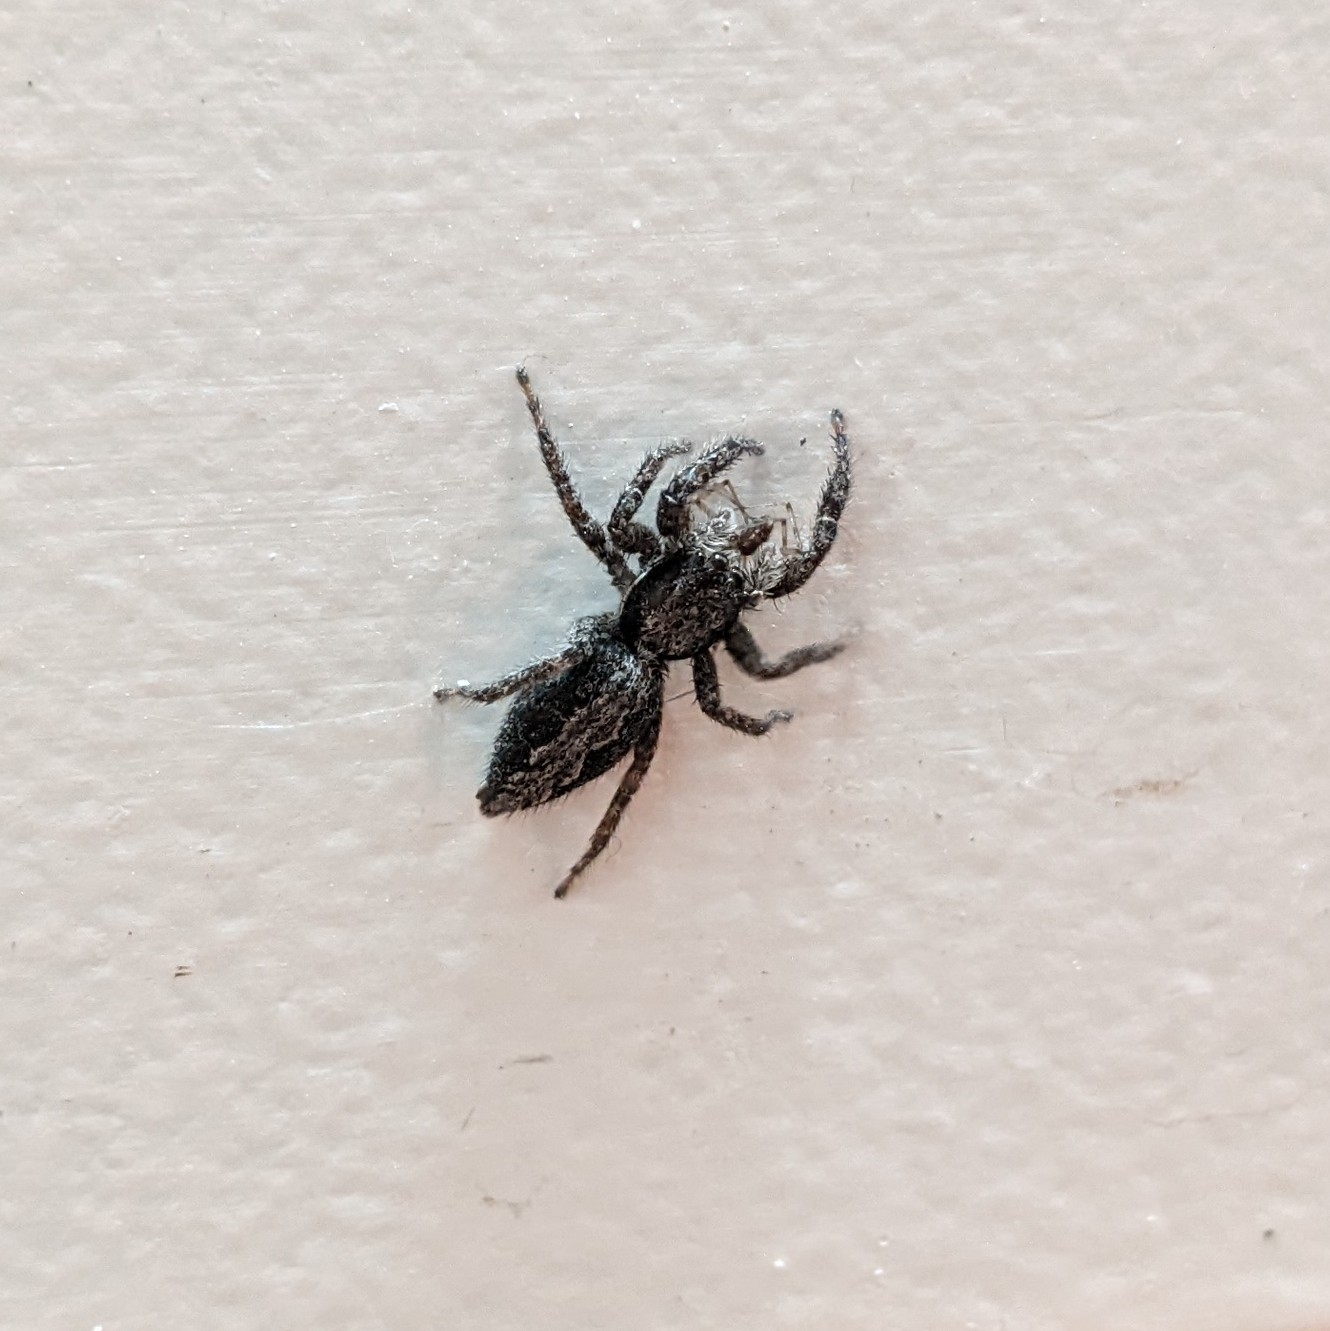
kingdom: Animalia
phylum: Arthropoda
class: Arachnida
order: Araneae
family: Salticidae
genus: Platycryptus
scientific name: Platycryptus californicus
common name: Jumping spiders
